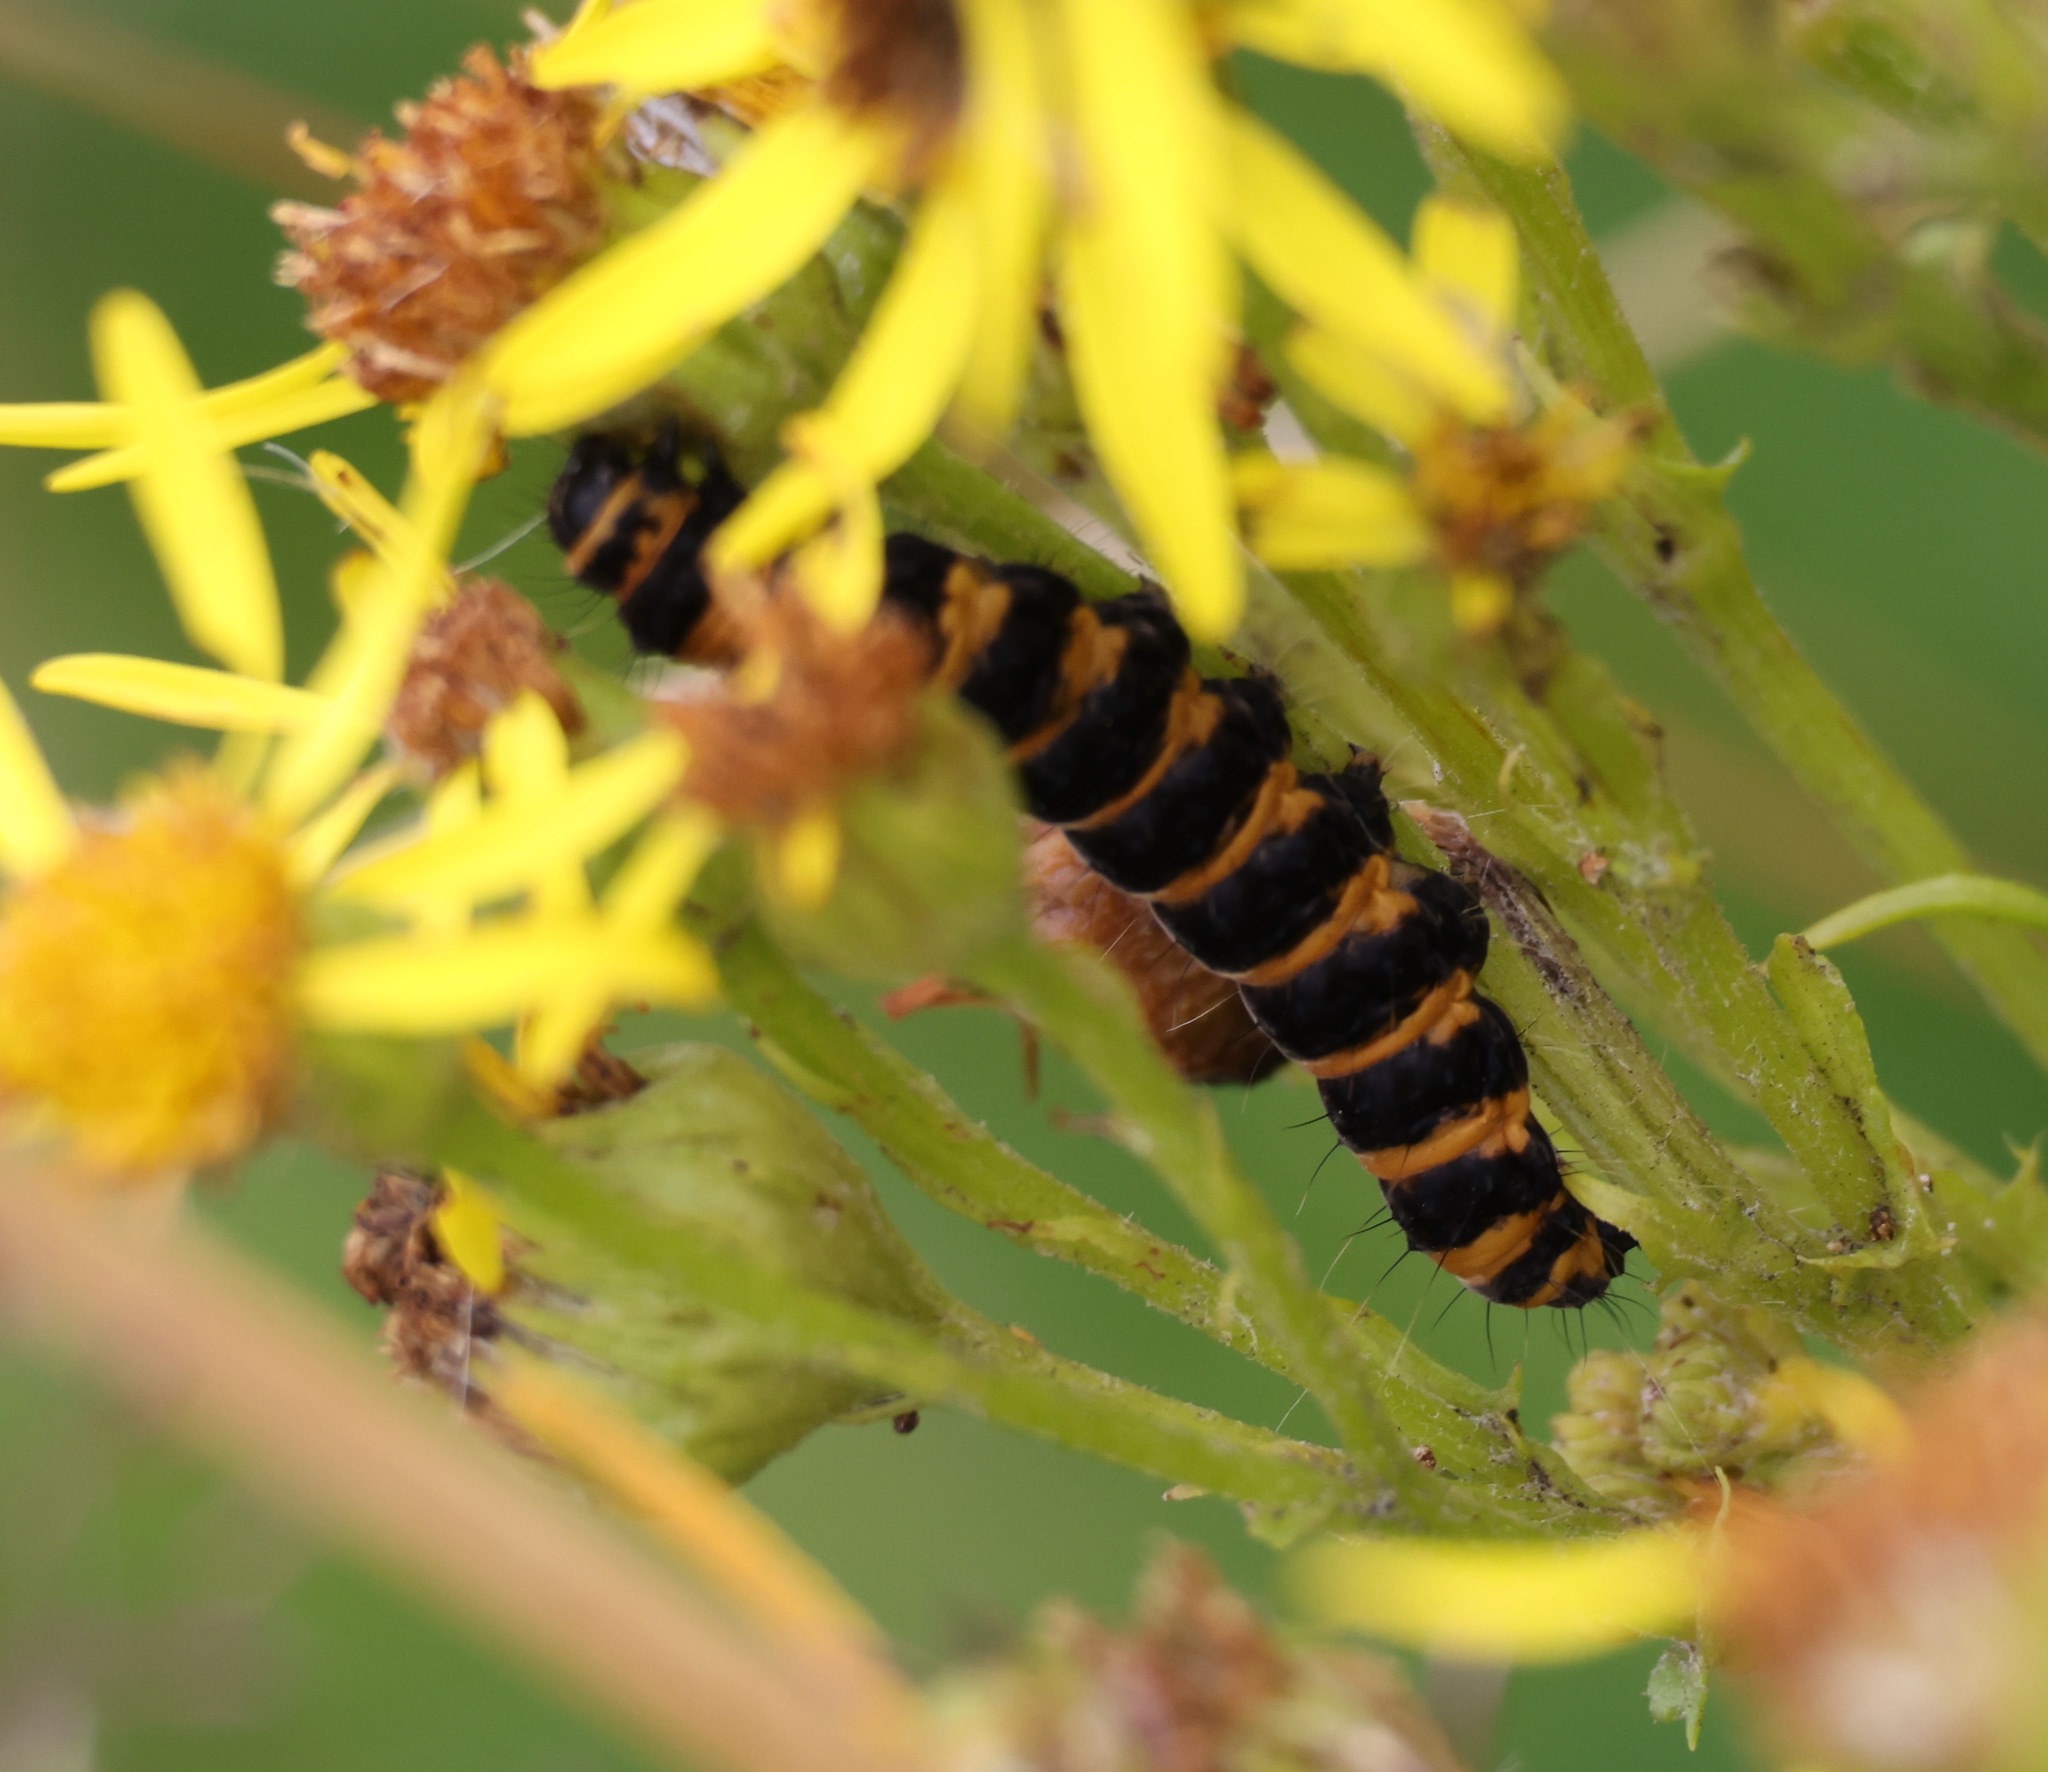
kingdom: Animalia
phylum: Arthropoda
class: Insecta
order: Lepidoptera
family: Erebidae
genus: Tyria
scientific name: Tyria jacobaeae
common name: Cinnabar
